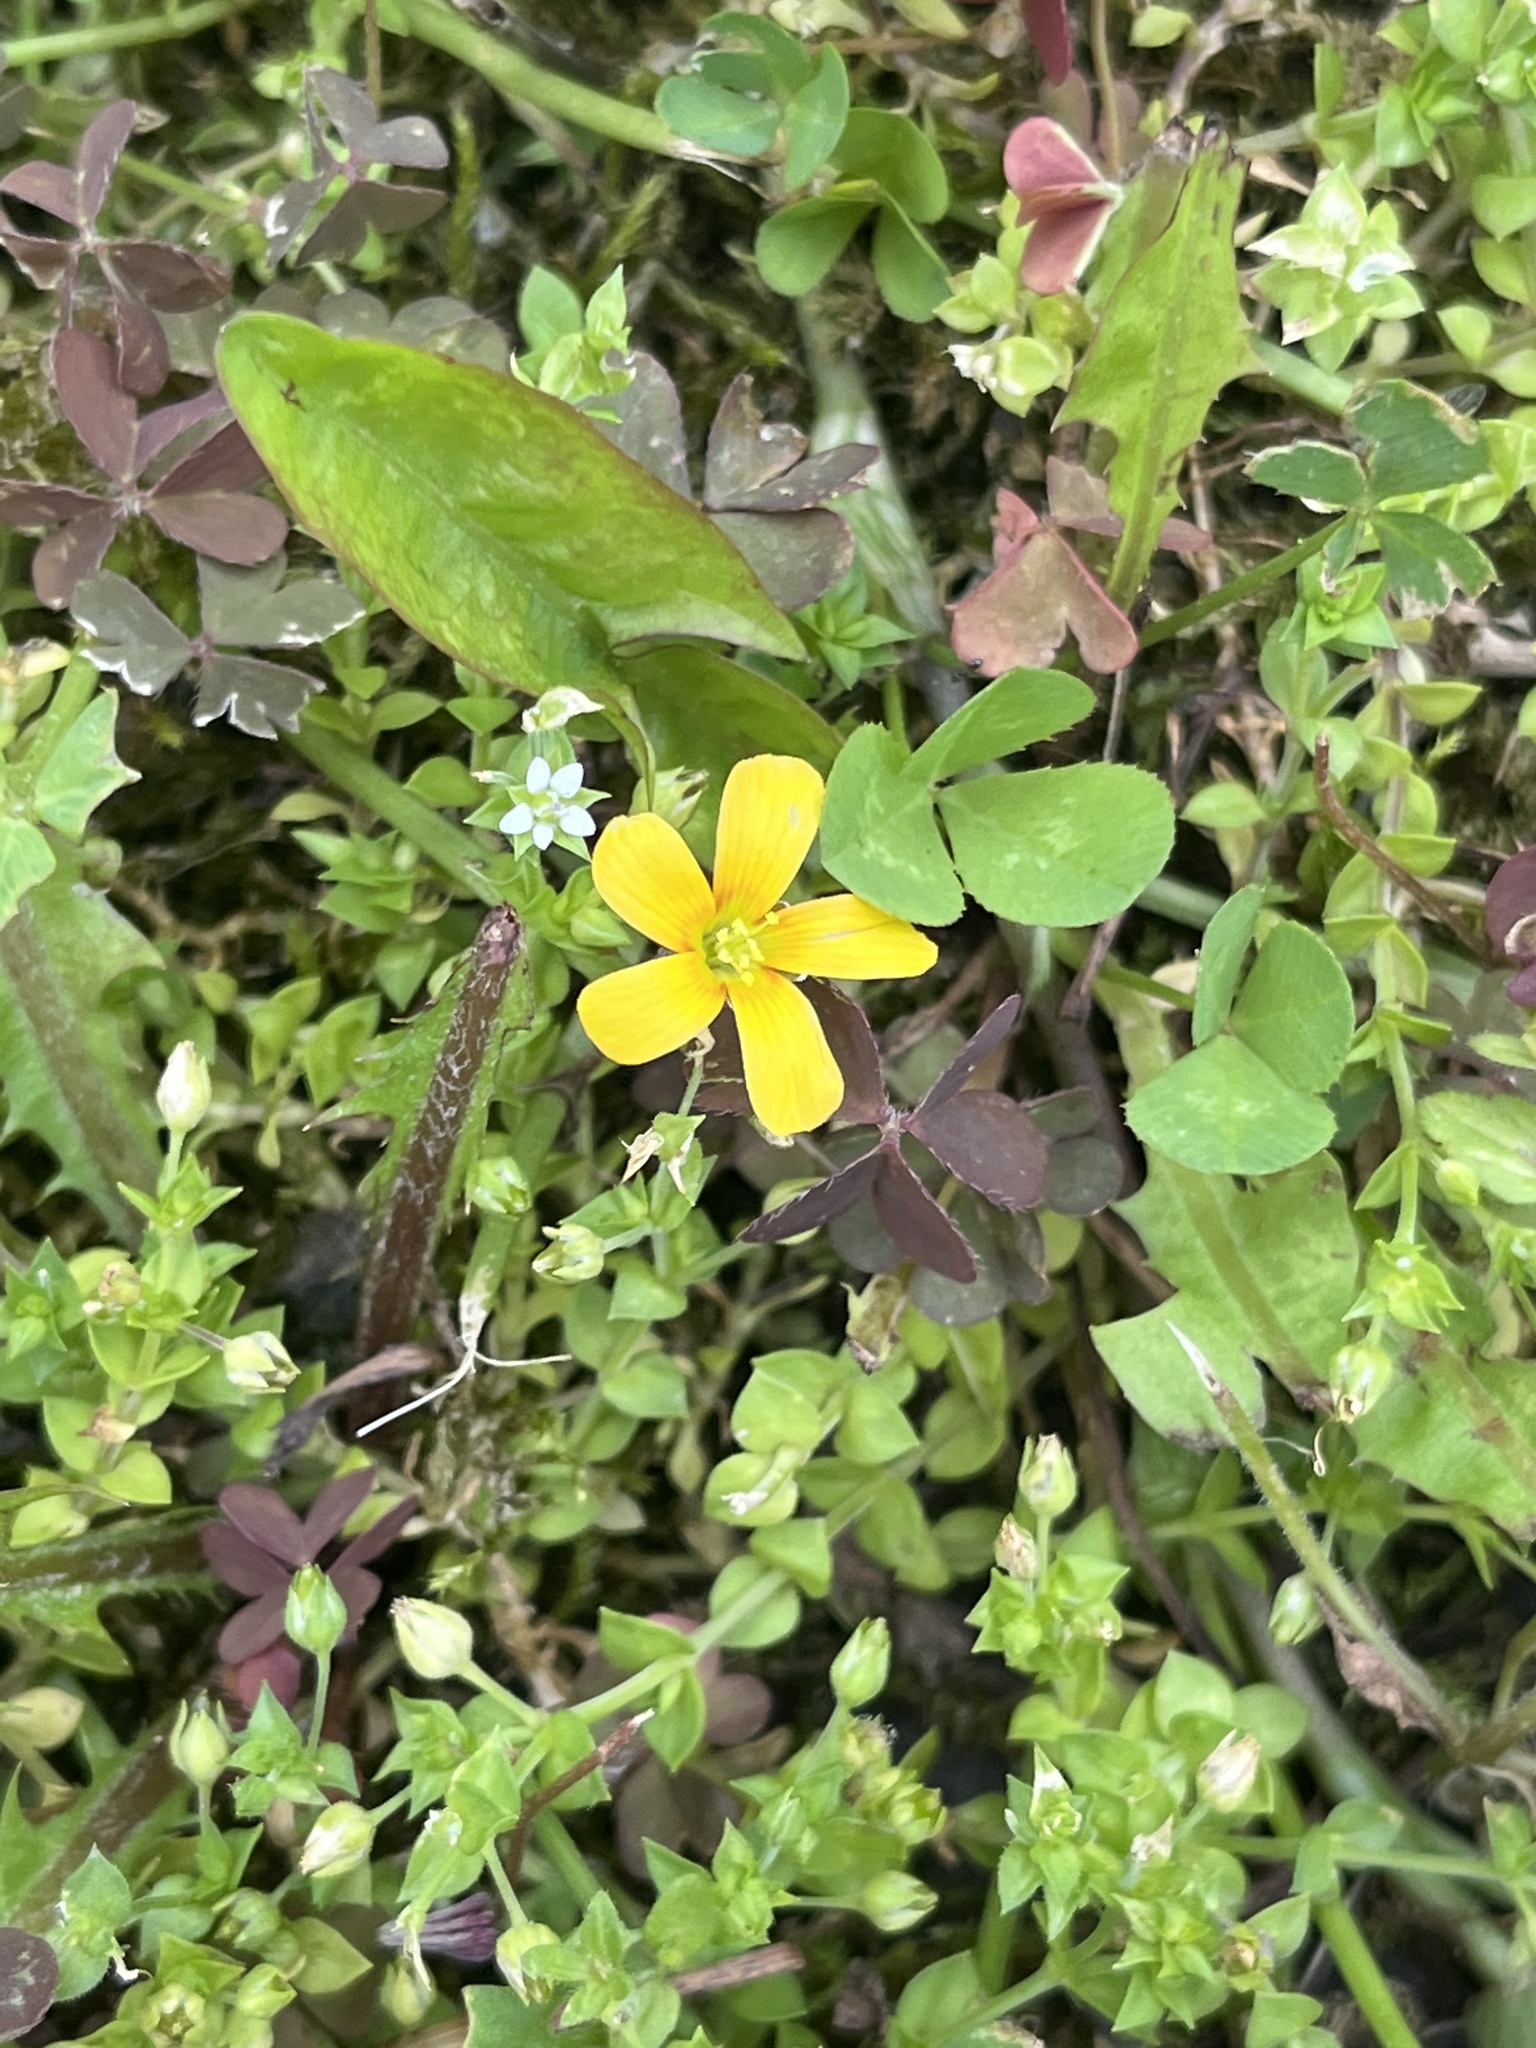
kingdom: Plantae
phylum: Tracheophyta
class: Magnoliopsida
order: Oxalidales
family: Oxalidaceae
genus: Oxalis
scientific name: Oxalis corniculata
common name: Procumbent yellow-sorrel
